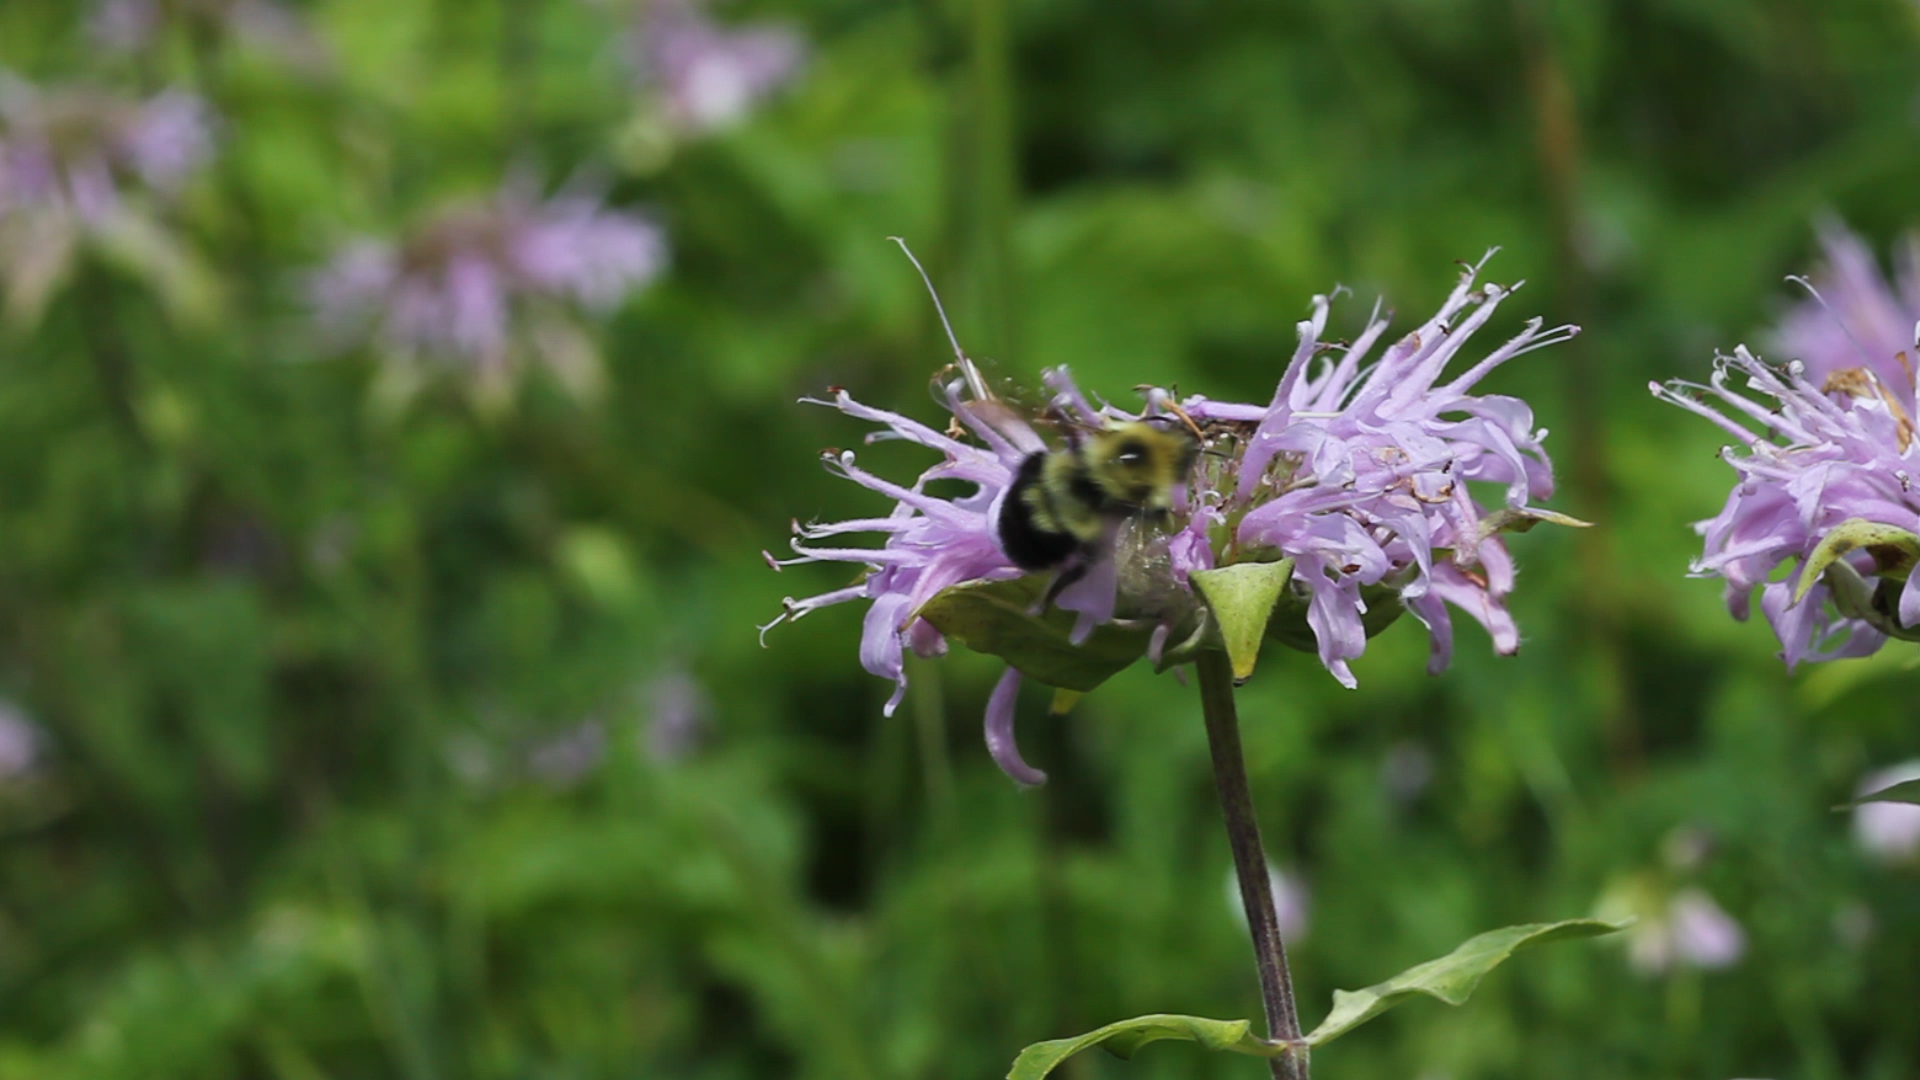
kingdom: Animalia
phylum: Arthropoda
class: Insecta
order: Hymenoptera
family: Apidae
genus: Bombus
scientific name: Bombus bimaculatus
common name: Two-spotted bumble bee
